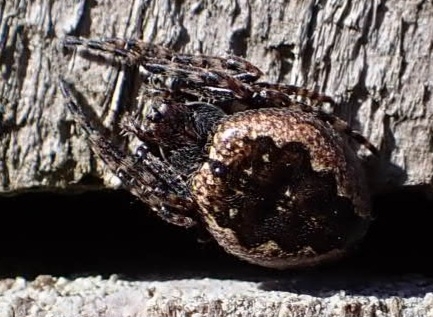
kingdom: Animalia
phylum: Arthropoda
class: Arachnida
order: Araneae
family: Araneidae
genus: Nuctenea
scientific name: Nuctenea umbratica
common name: Toad spider
